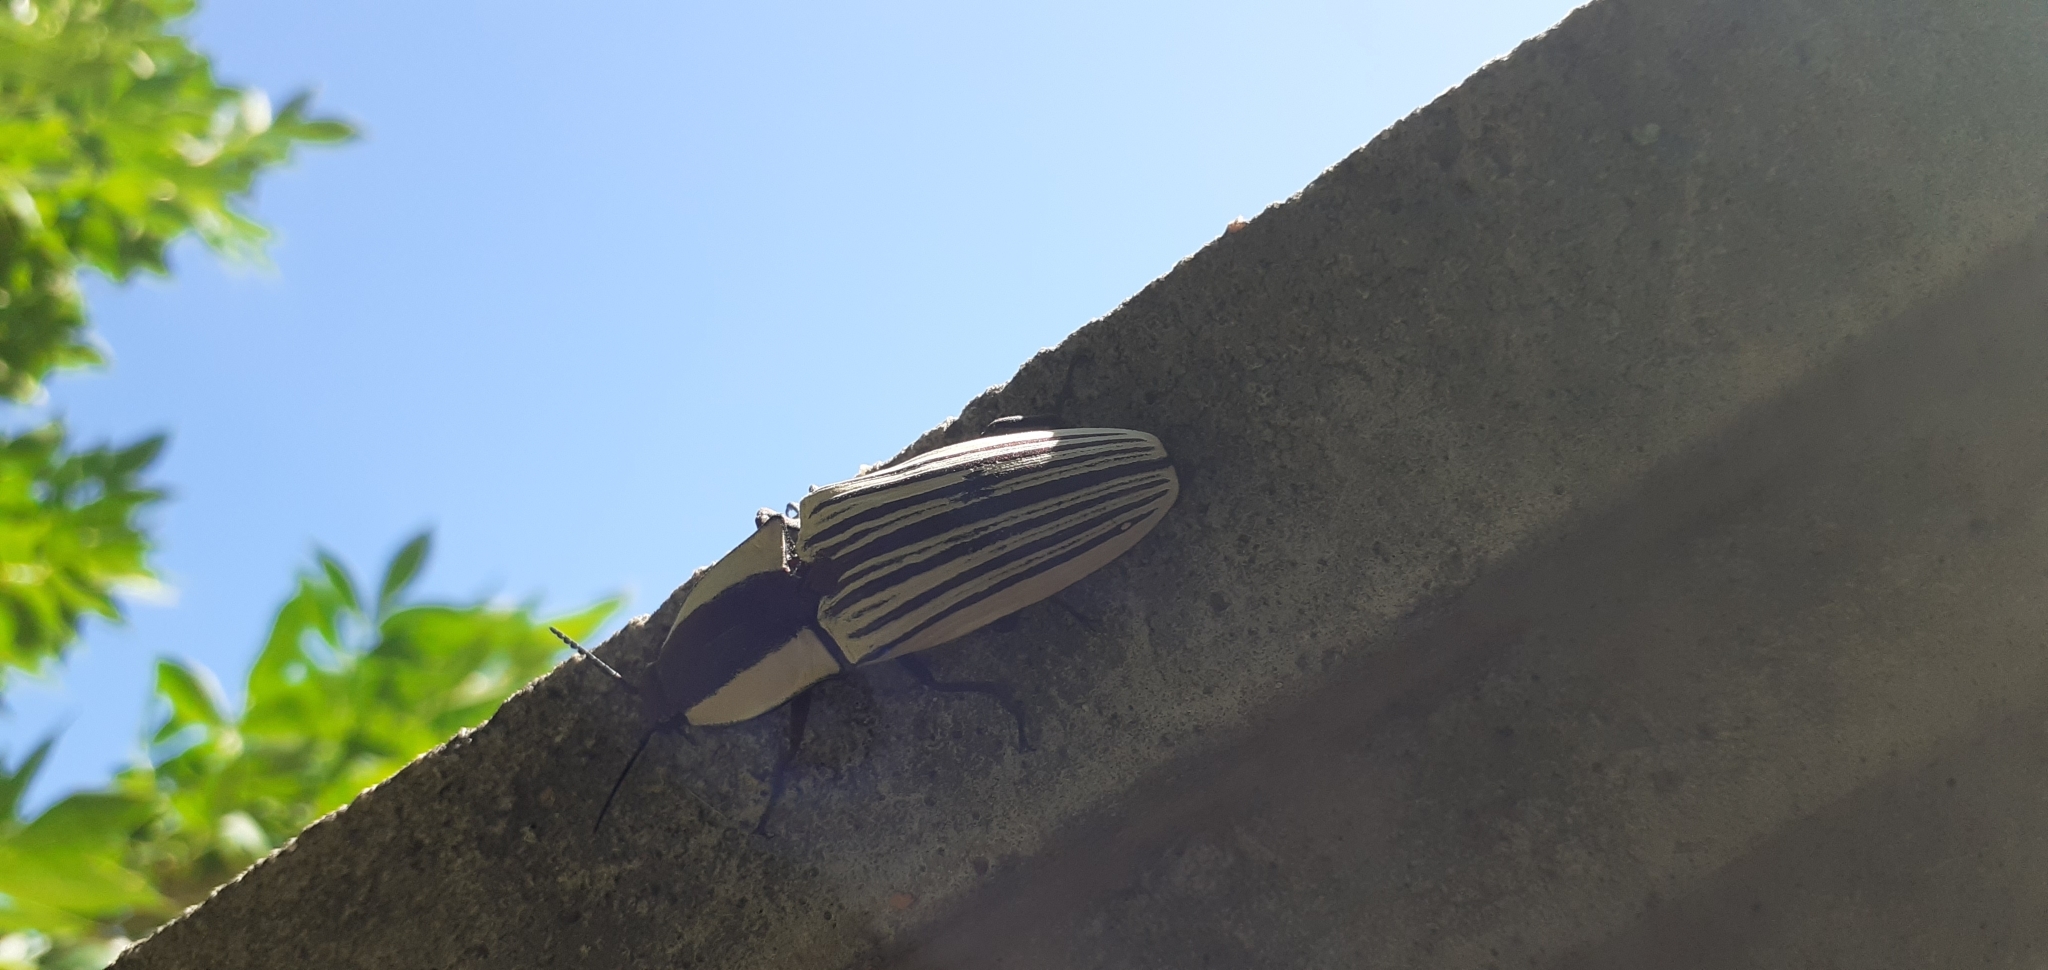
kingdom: Animalia
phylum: Arthropoda
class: Insecta
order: Coleoptera
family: Elateridae
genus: Chalcolepidius
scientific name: Chalcolepidius
